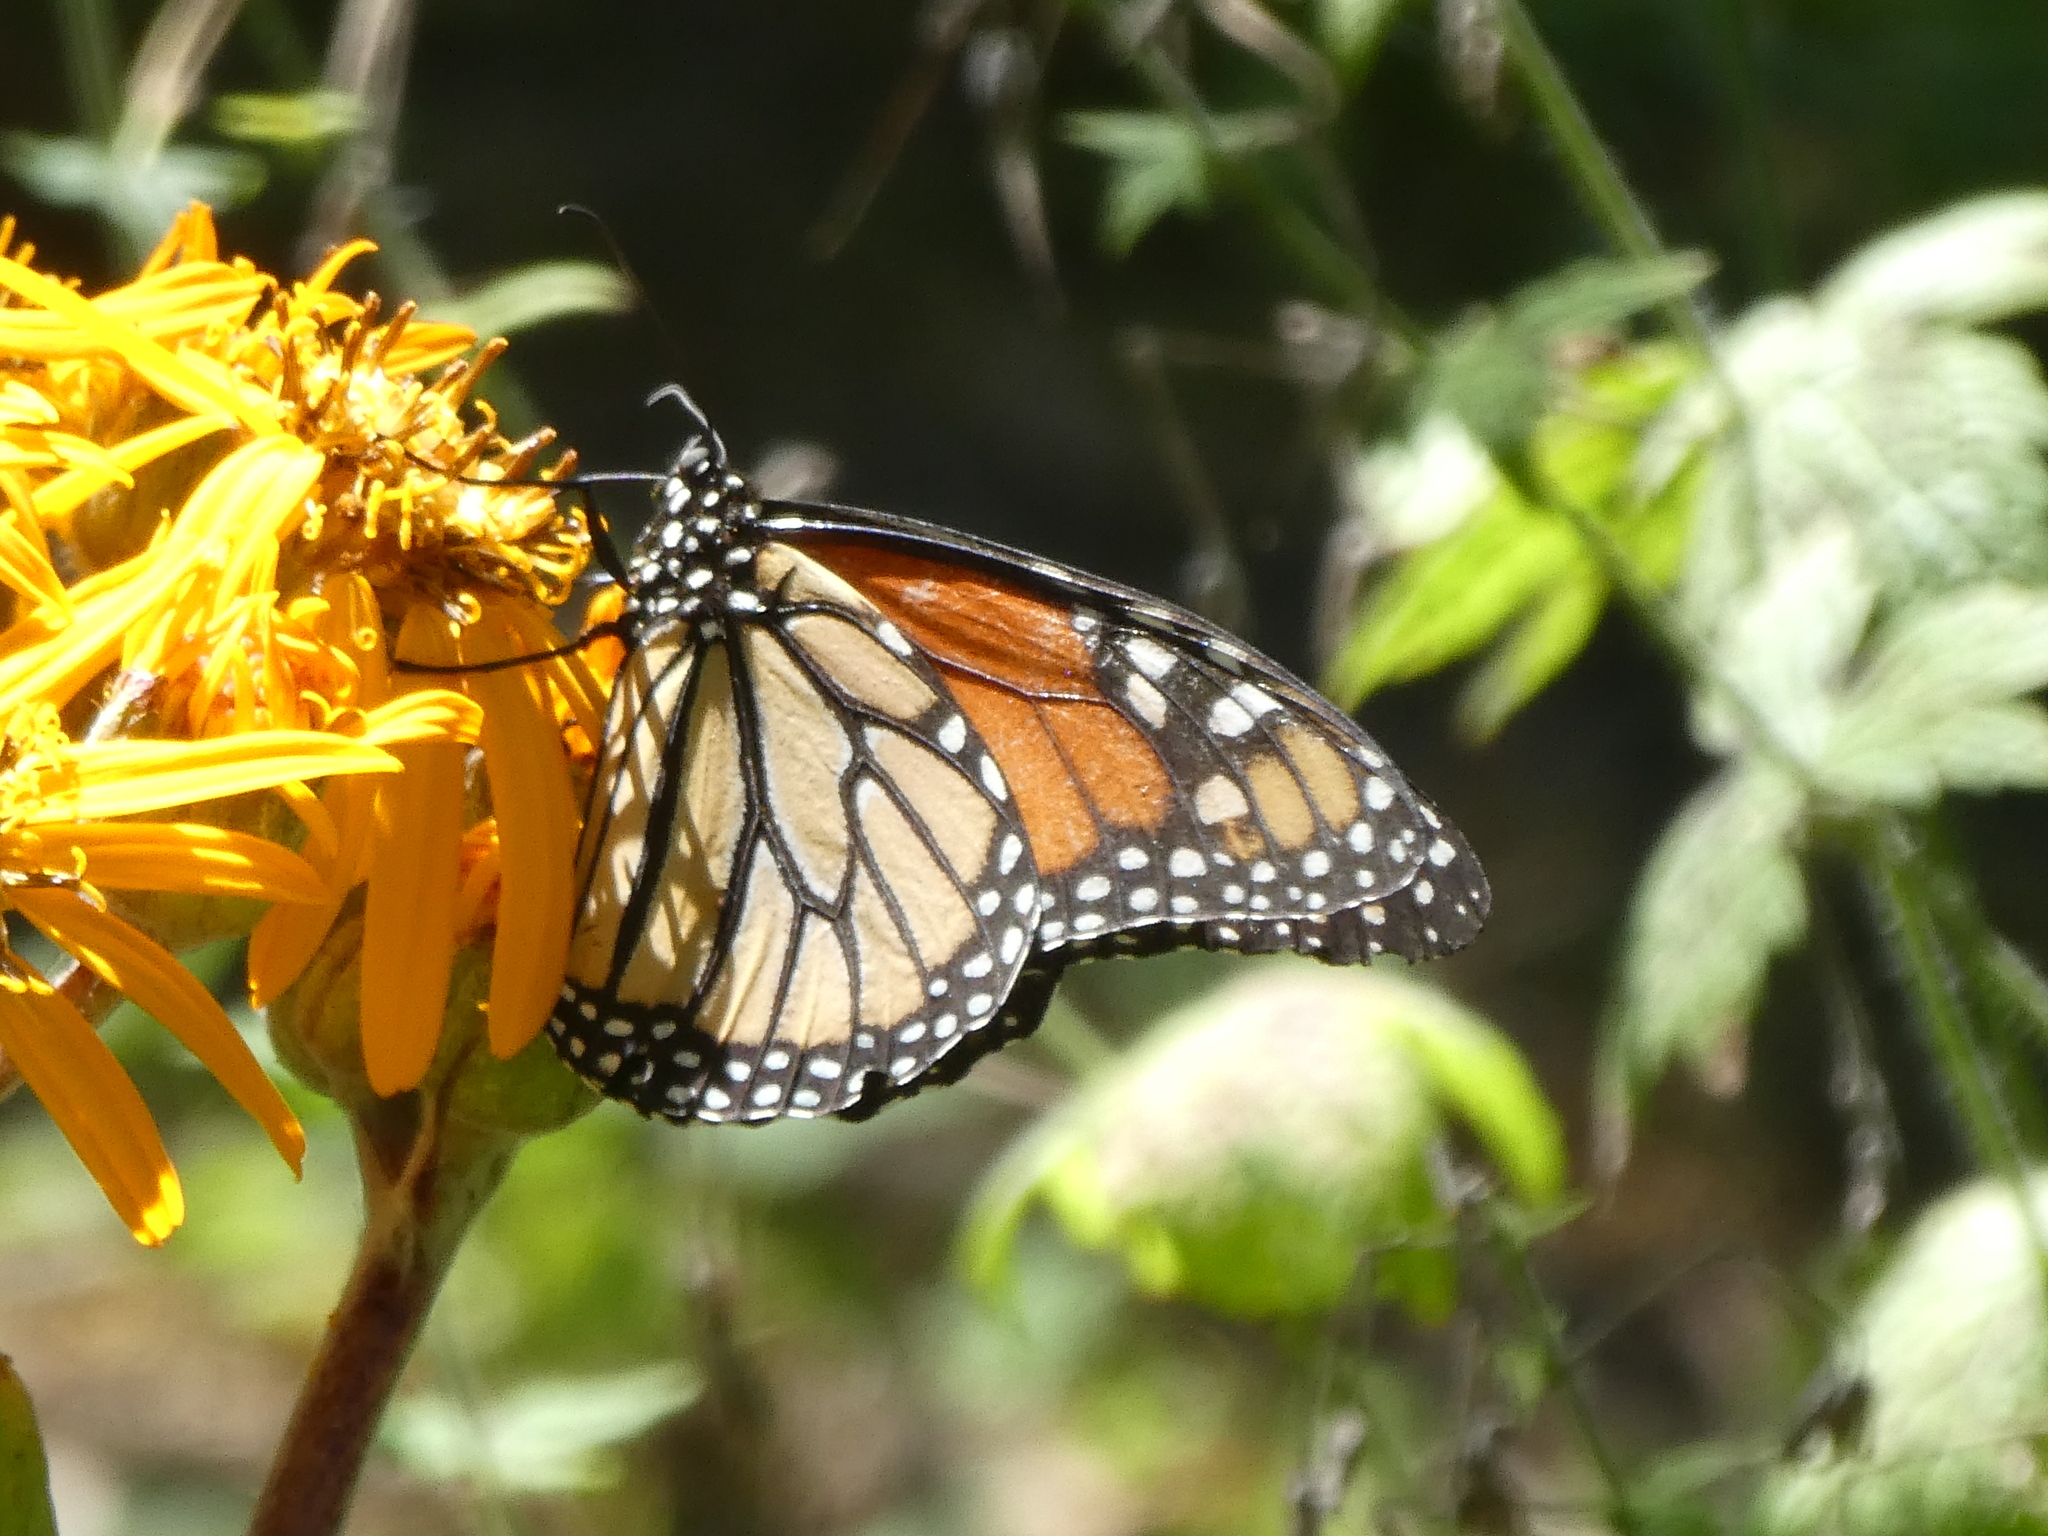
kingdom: Animalia
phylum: Arthropoda
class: Insecta
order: Lepidoptera
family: Nymphalidae
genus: Danaus
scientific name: Danaus plexippus
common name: Monarch
